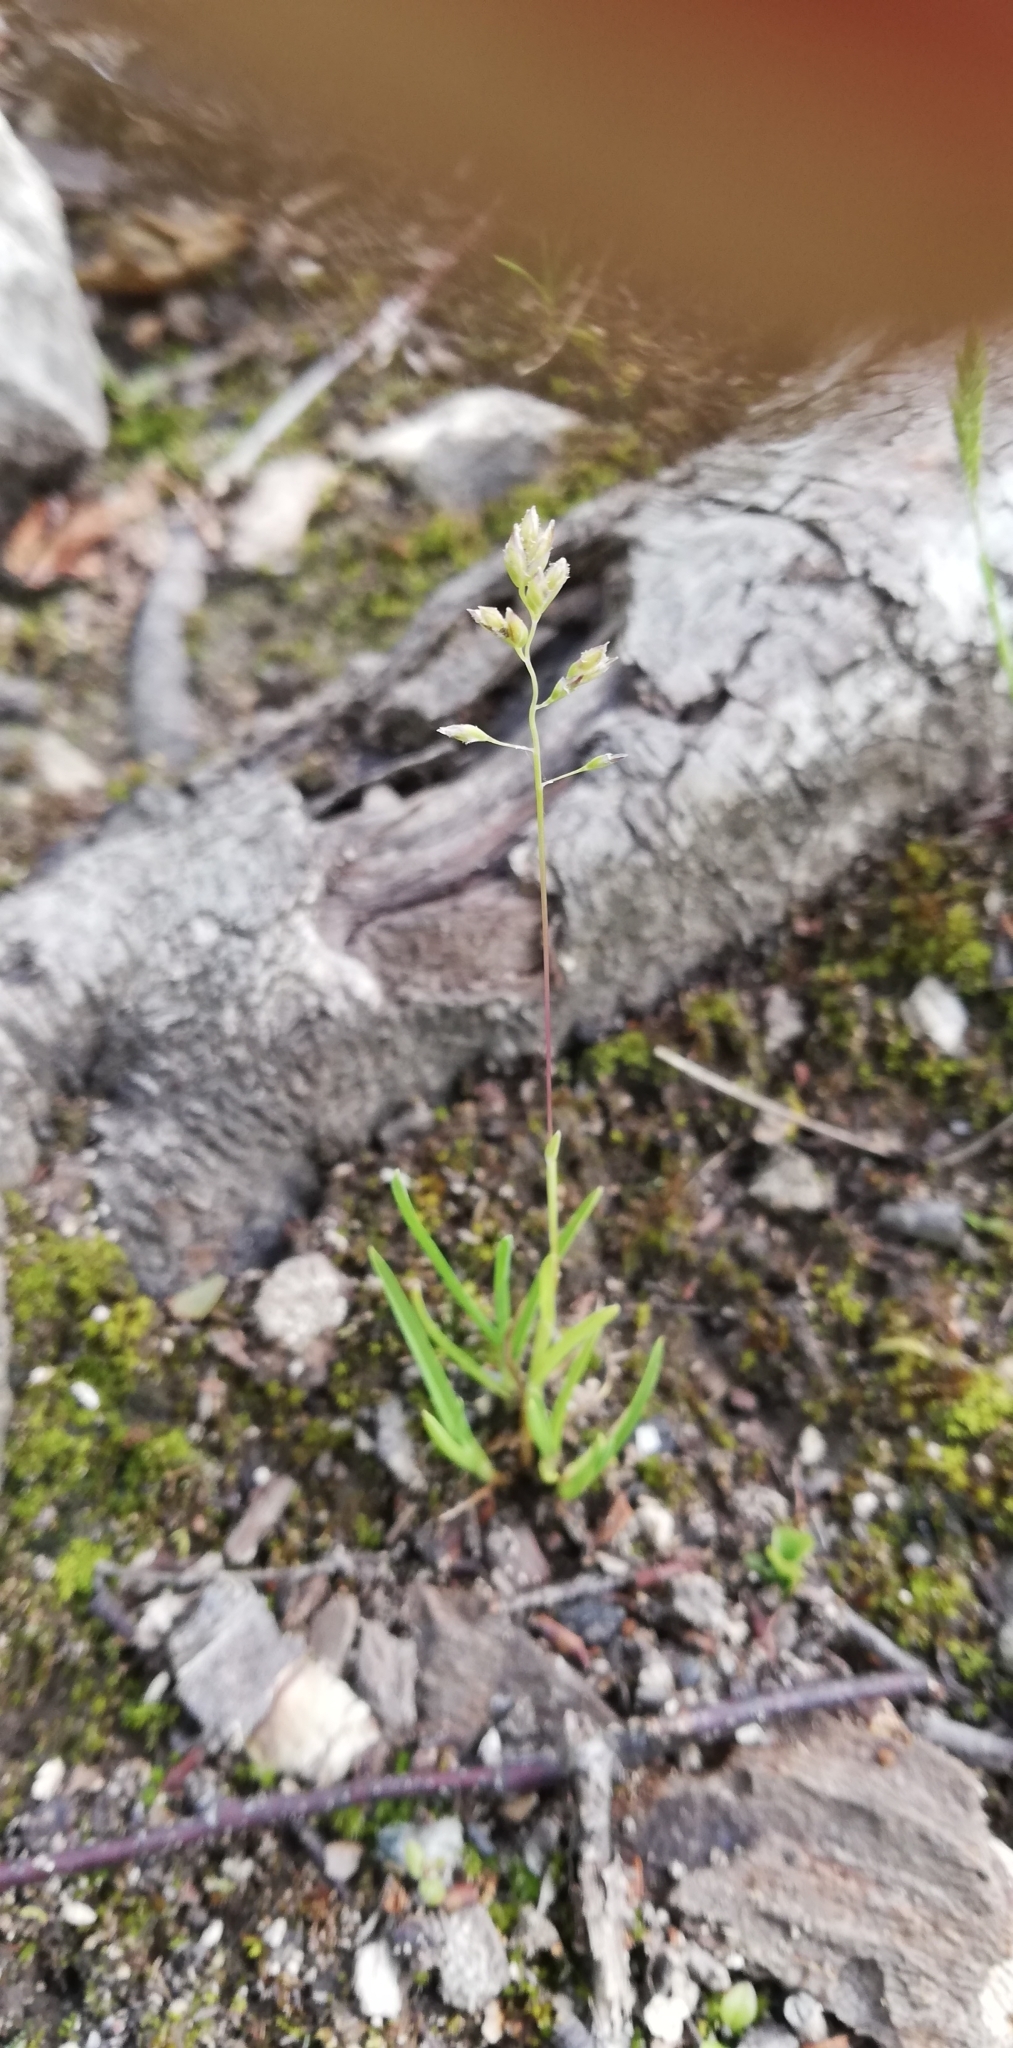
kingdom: Plantae
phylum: Tracheophyta
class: Liliopsida
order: Poales
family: Poaceae
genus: Poa
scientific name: Poa annua
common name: Annual bluegrass
